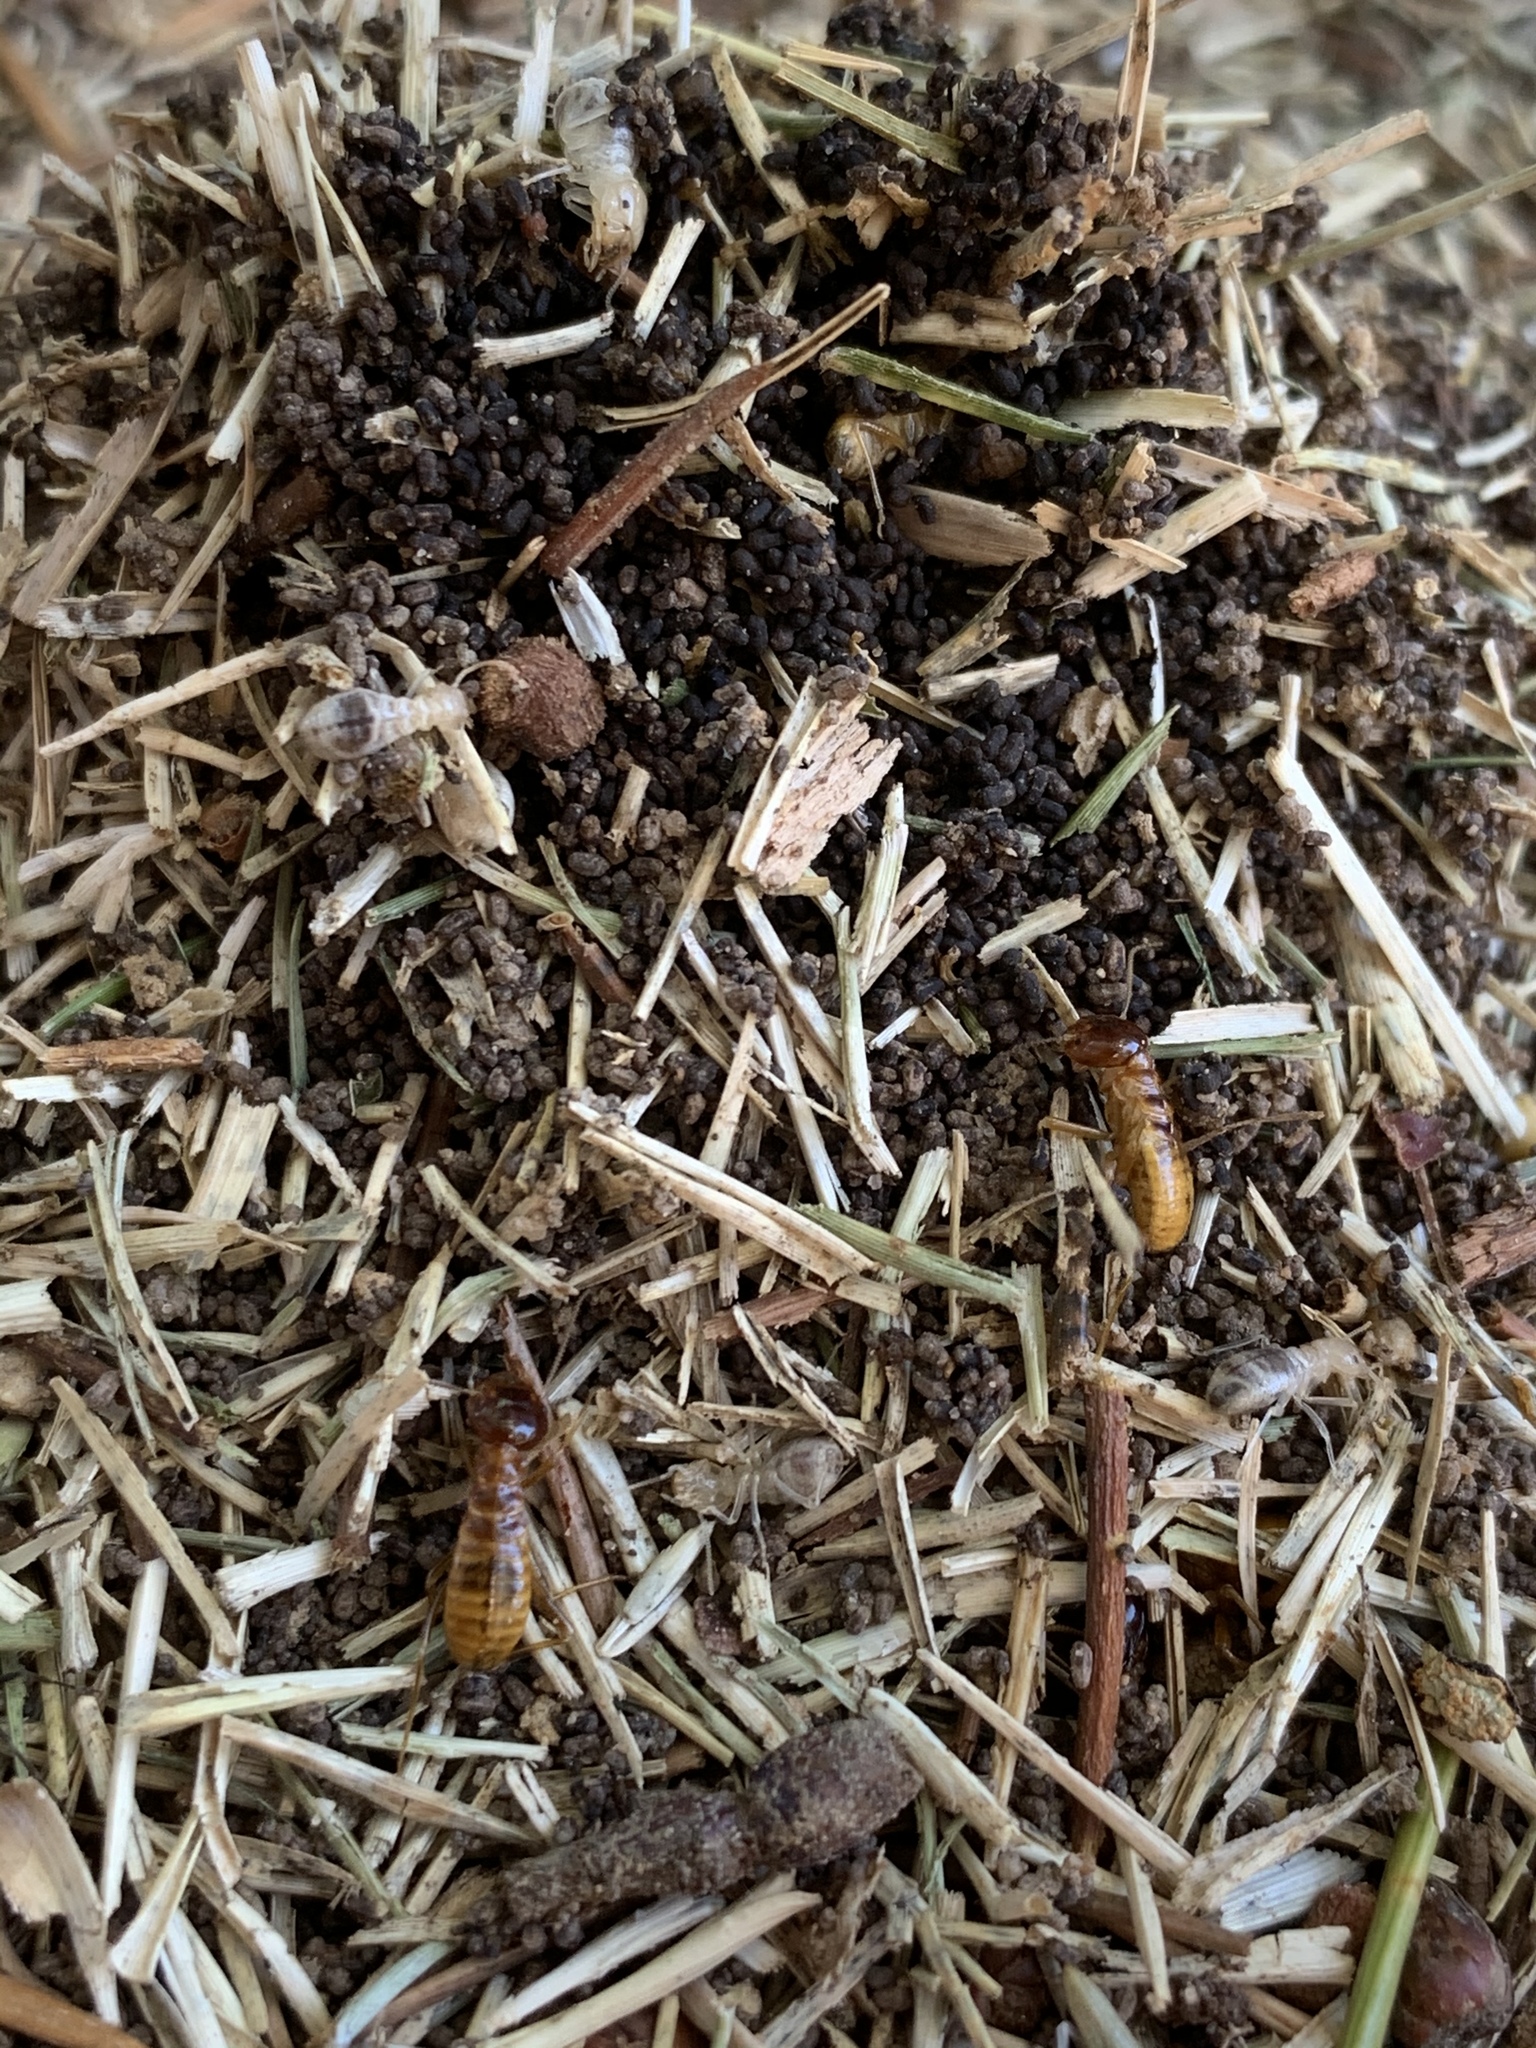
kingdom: Animalia
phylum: Arthropoda
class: Insecta
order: Blattodea
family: Hodotermitidae
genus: Microhodotermes
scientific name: Microhodotermes viator
